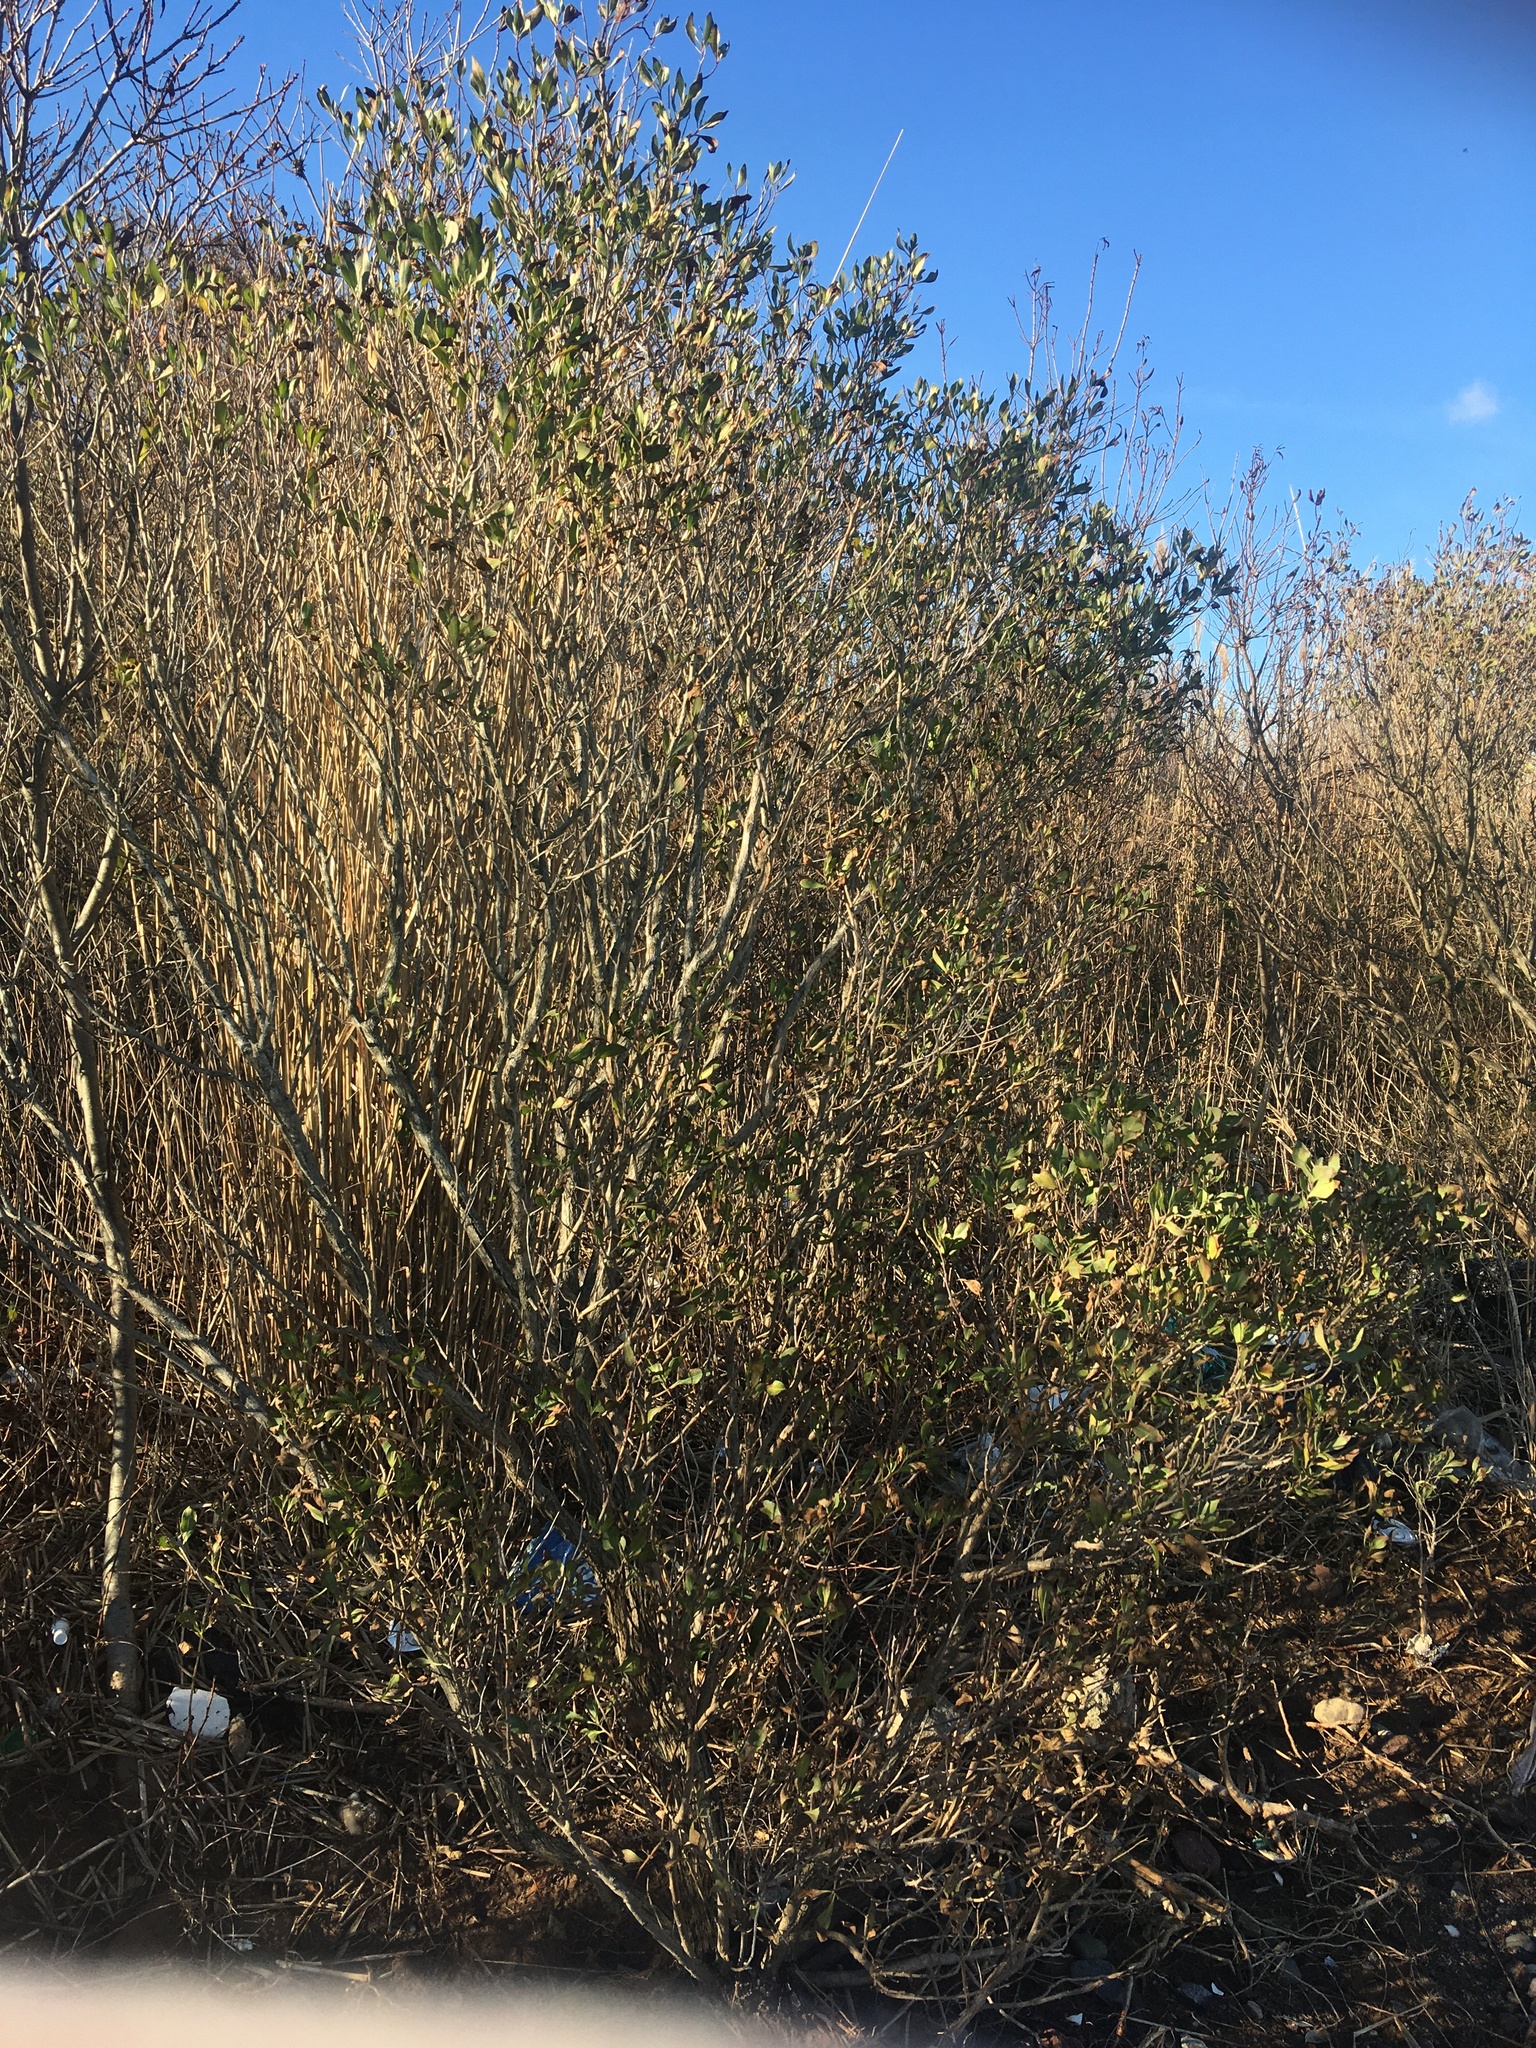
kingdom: Plantae
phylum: Tracheophyta
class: Magnoliopsida
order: Asterales
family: Asteraceae
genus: Baccharis
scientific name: Baccharis halimifolia
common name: Eastern baccharis
